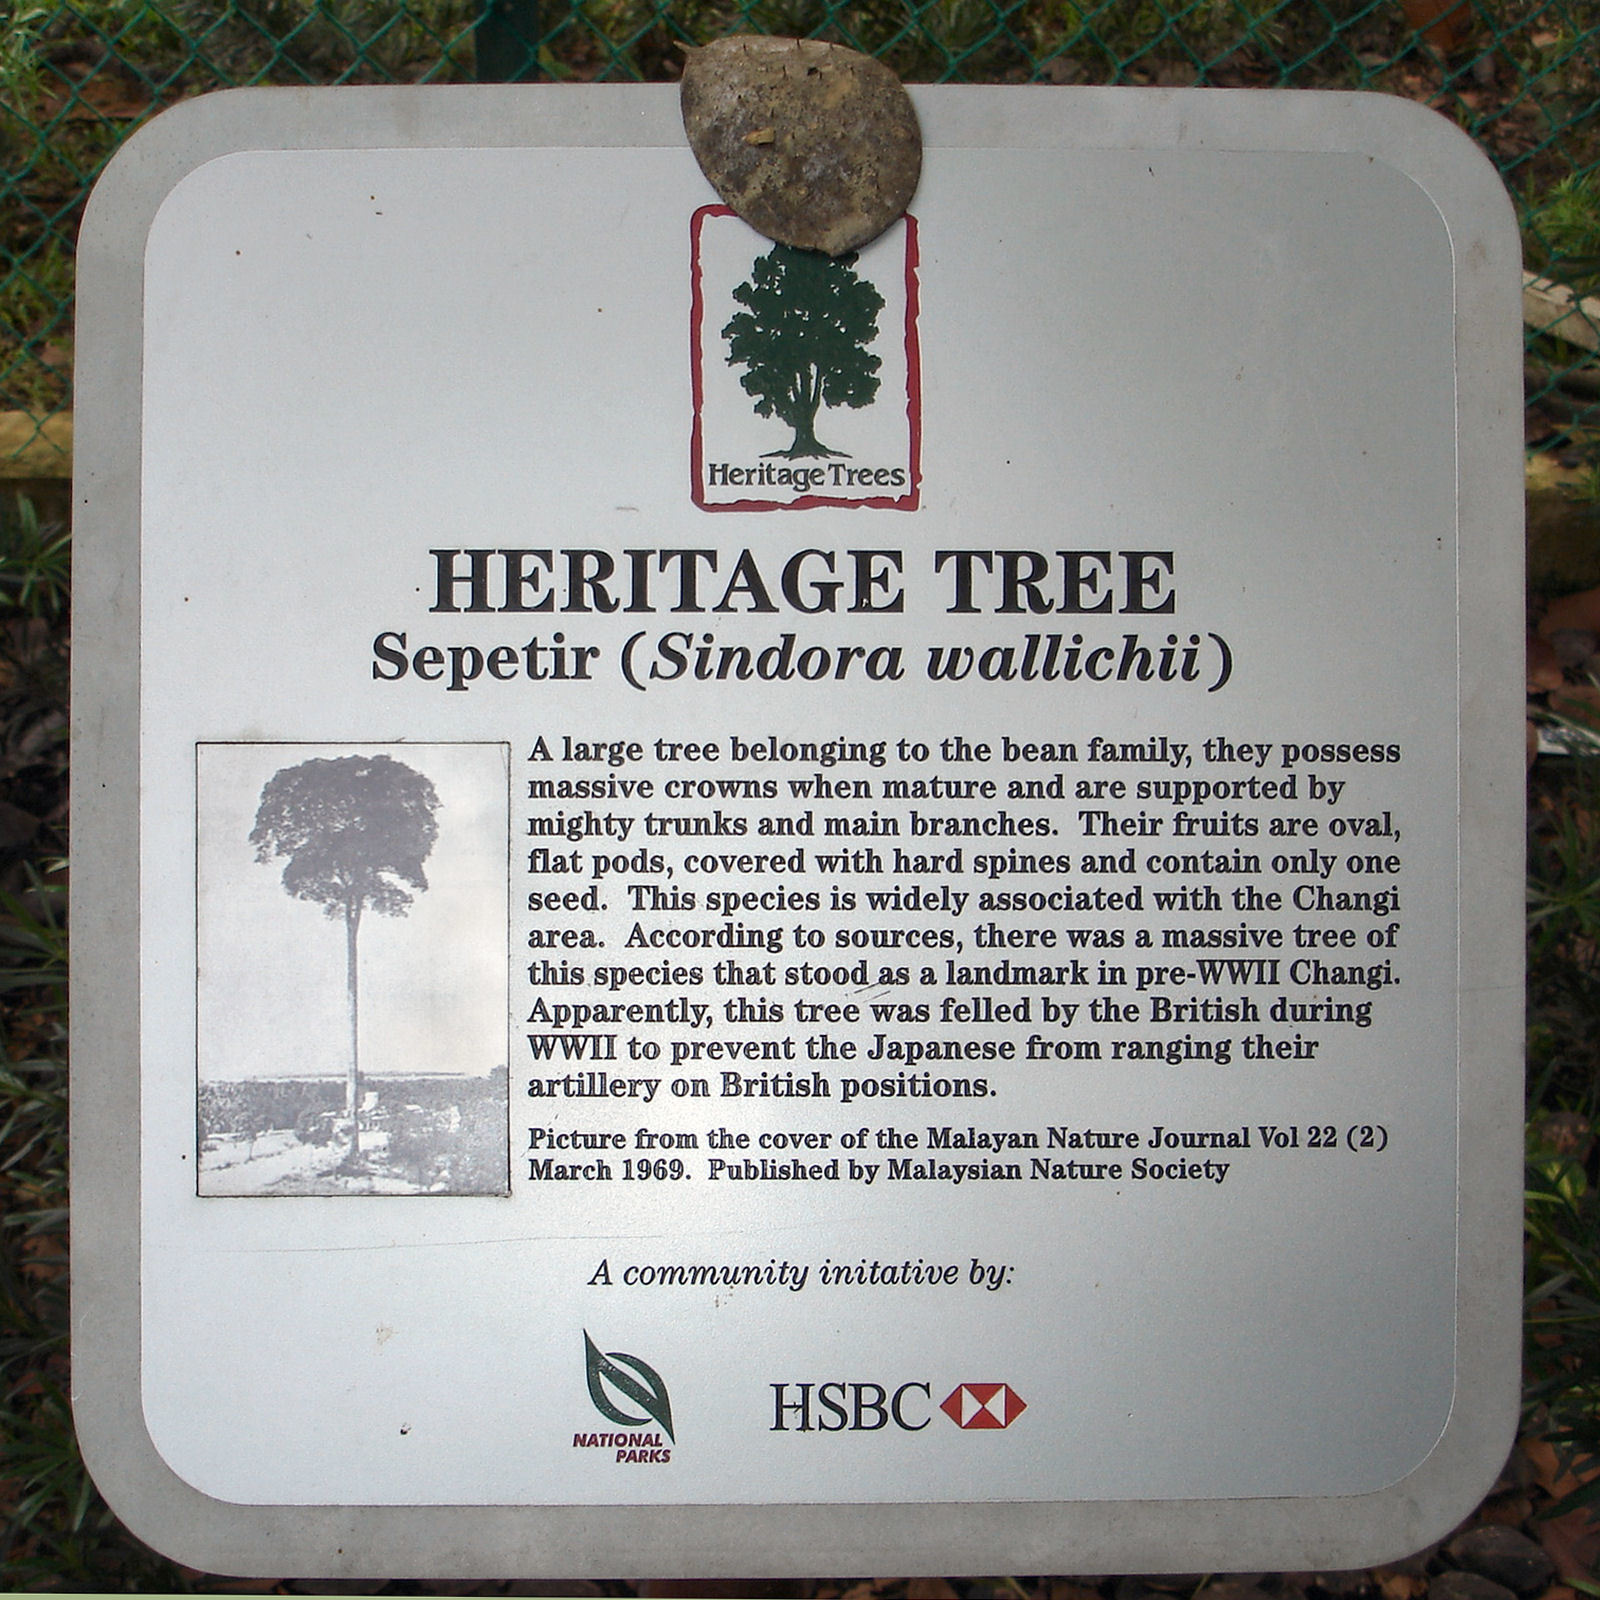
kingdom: Plantae
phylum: Tracheophyta
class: Magnoliopsida
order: Fabales
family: Fabaceae
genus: Sindora
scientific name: Sindora wallichii
